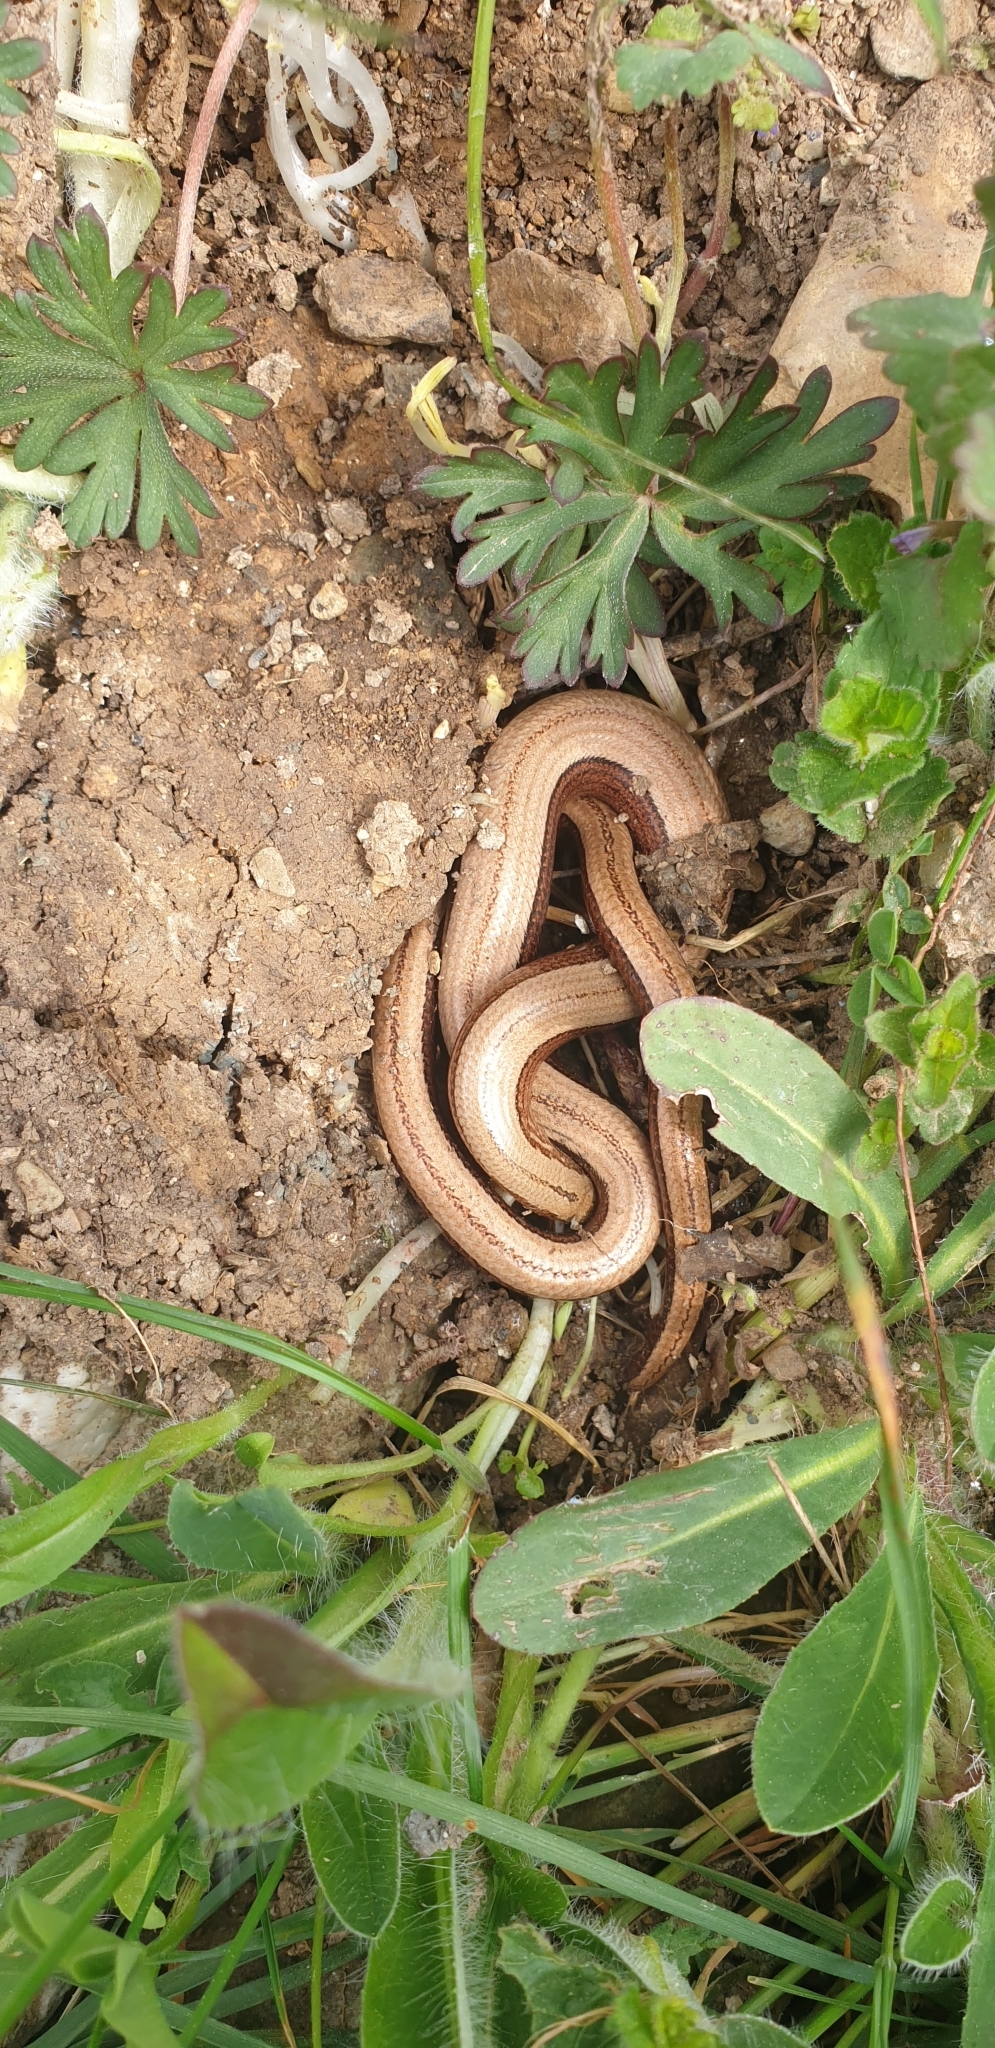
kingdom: Animalia
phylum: Chordata
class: Squamata
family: Anguidae
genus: Anguis
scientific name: Anguis fragilis
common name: Slow worm
